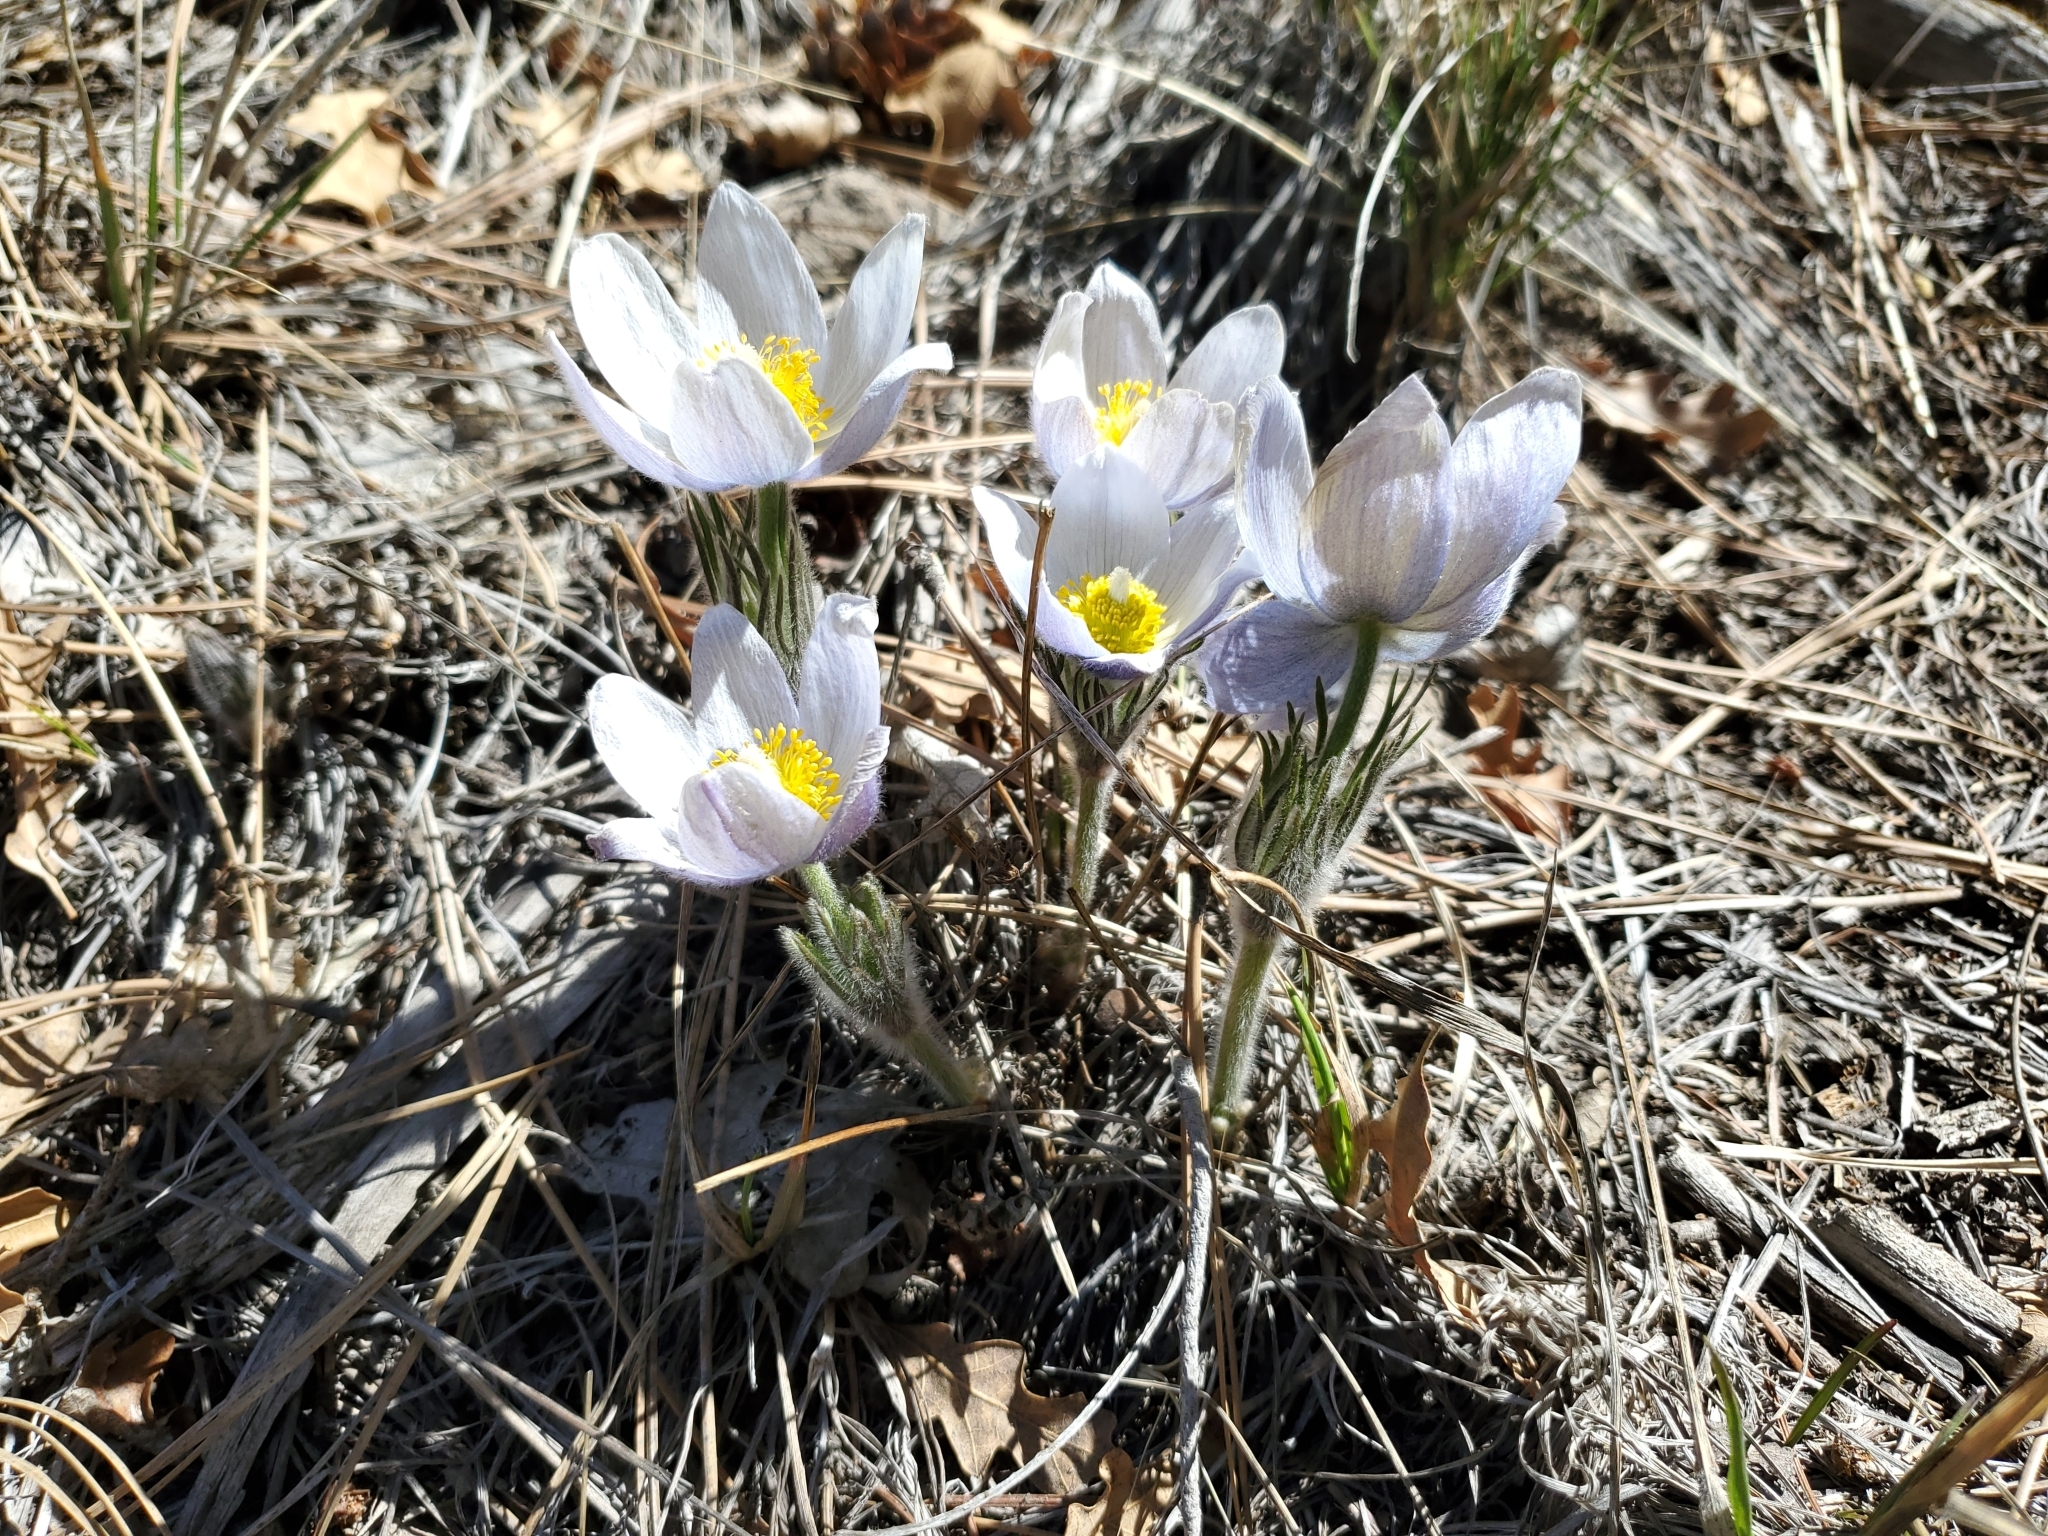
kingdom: Plantae
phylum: Tracheophyta
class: Magnoliopsida
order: Ranunculales
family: Ranunculaceae
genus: Pulsatilla
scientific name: Pulsatilla nuttalliana
